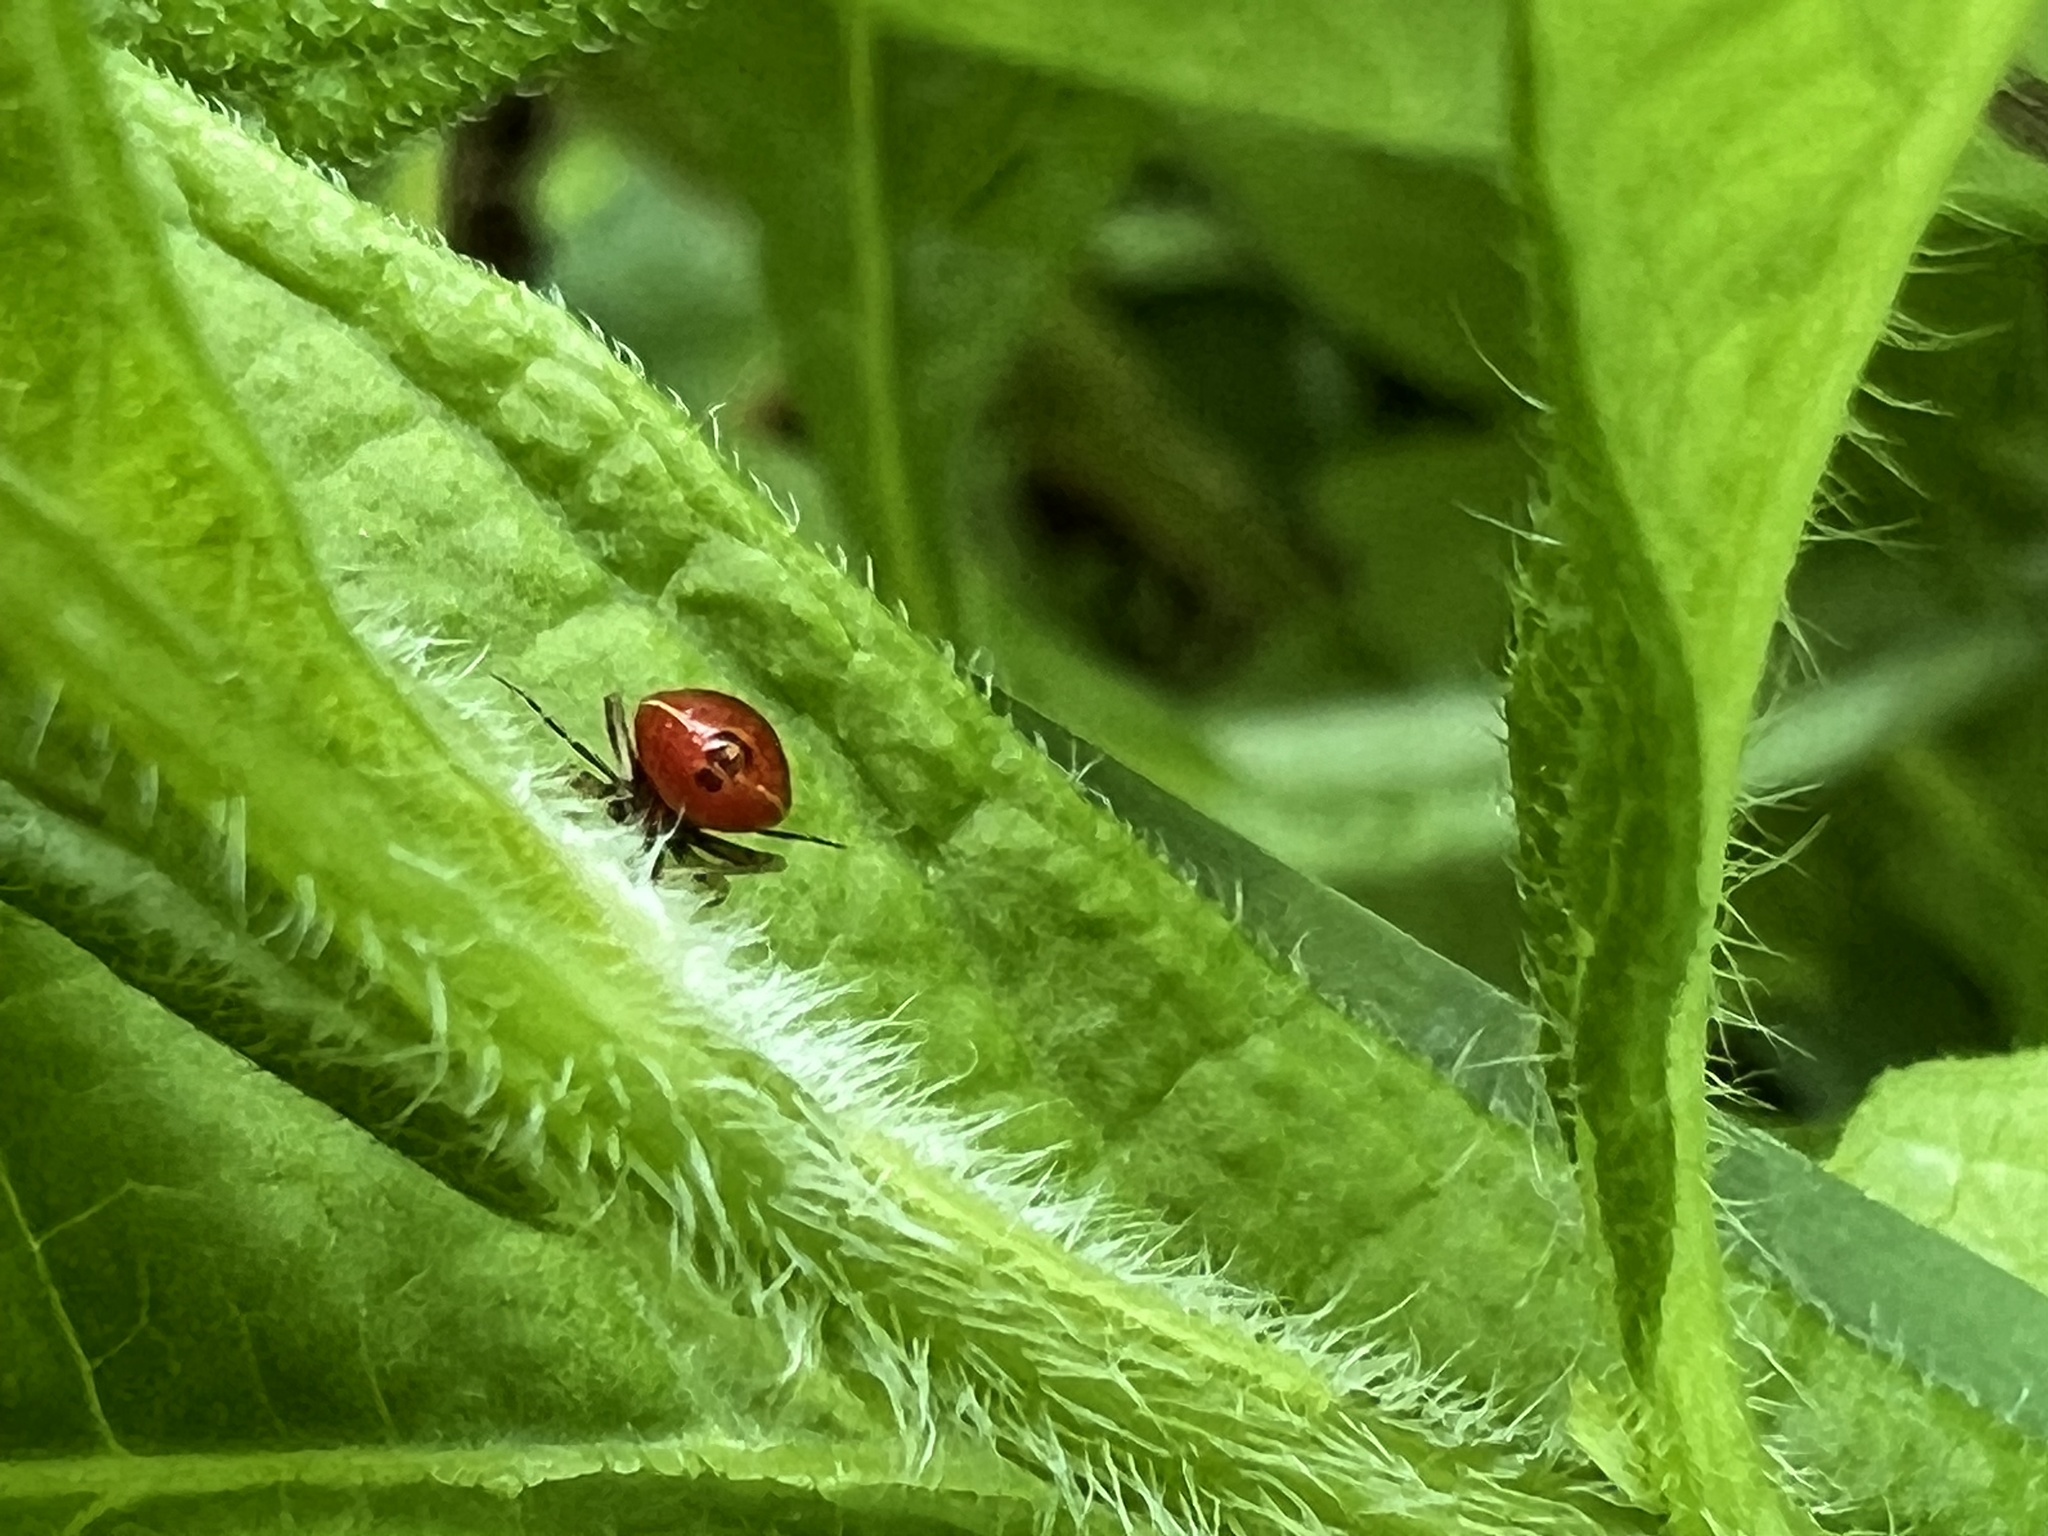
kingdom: Animalia
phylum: Arthropoda
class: Insecta
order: Hemiptera
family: Miridae
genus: Poecilocapsus
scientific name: Poecilocapsus lineatus
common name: Four-lined plant bug
